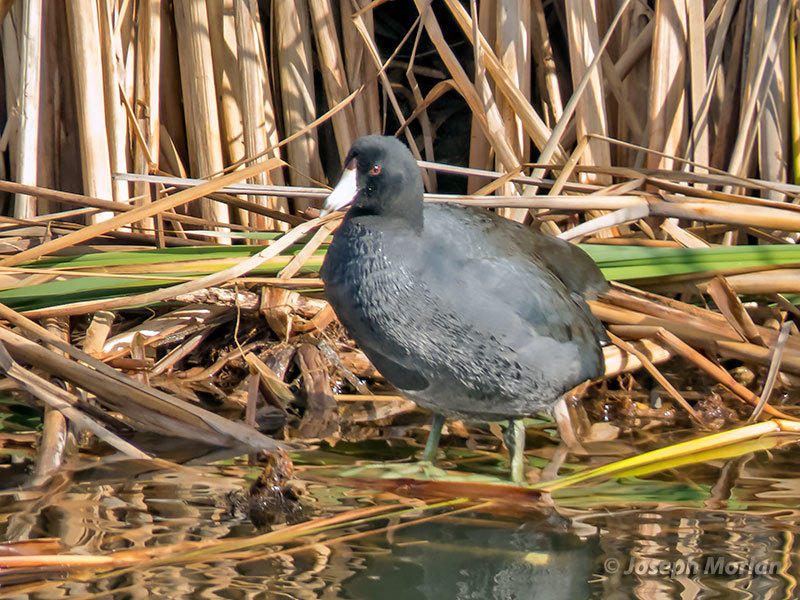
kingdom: Animalia
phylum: Chordata
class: Aves
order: Gruiformes
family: Rallidae
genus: Fulica
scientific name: Fulica americana
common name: American coot
